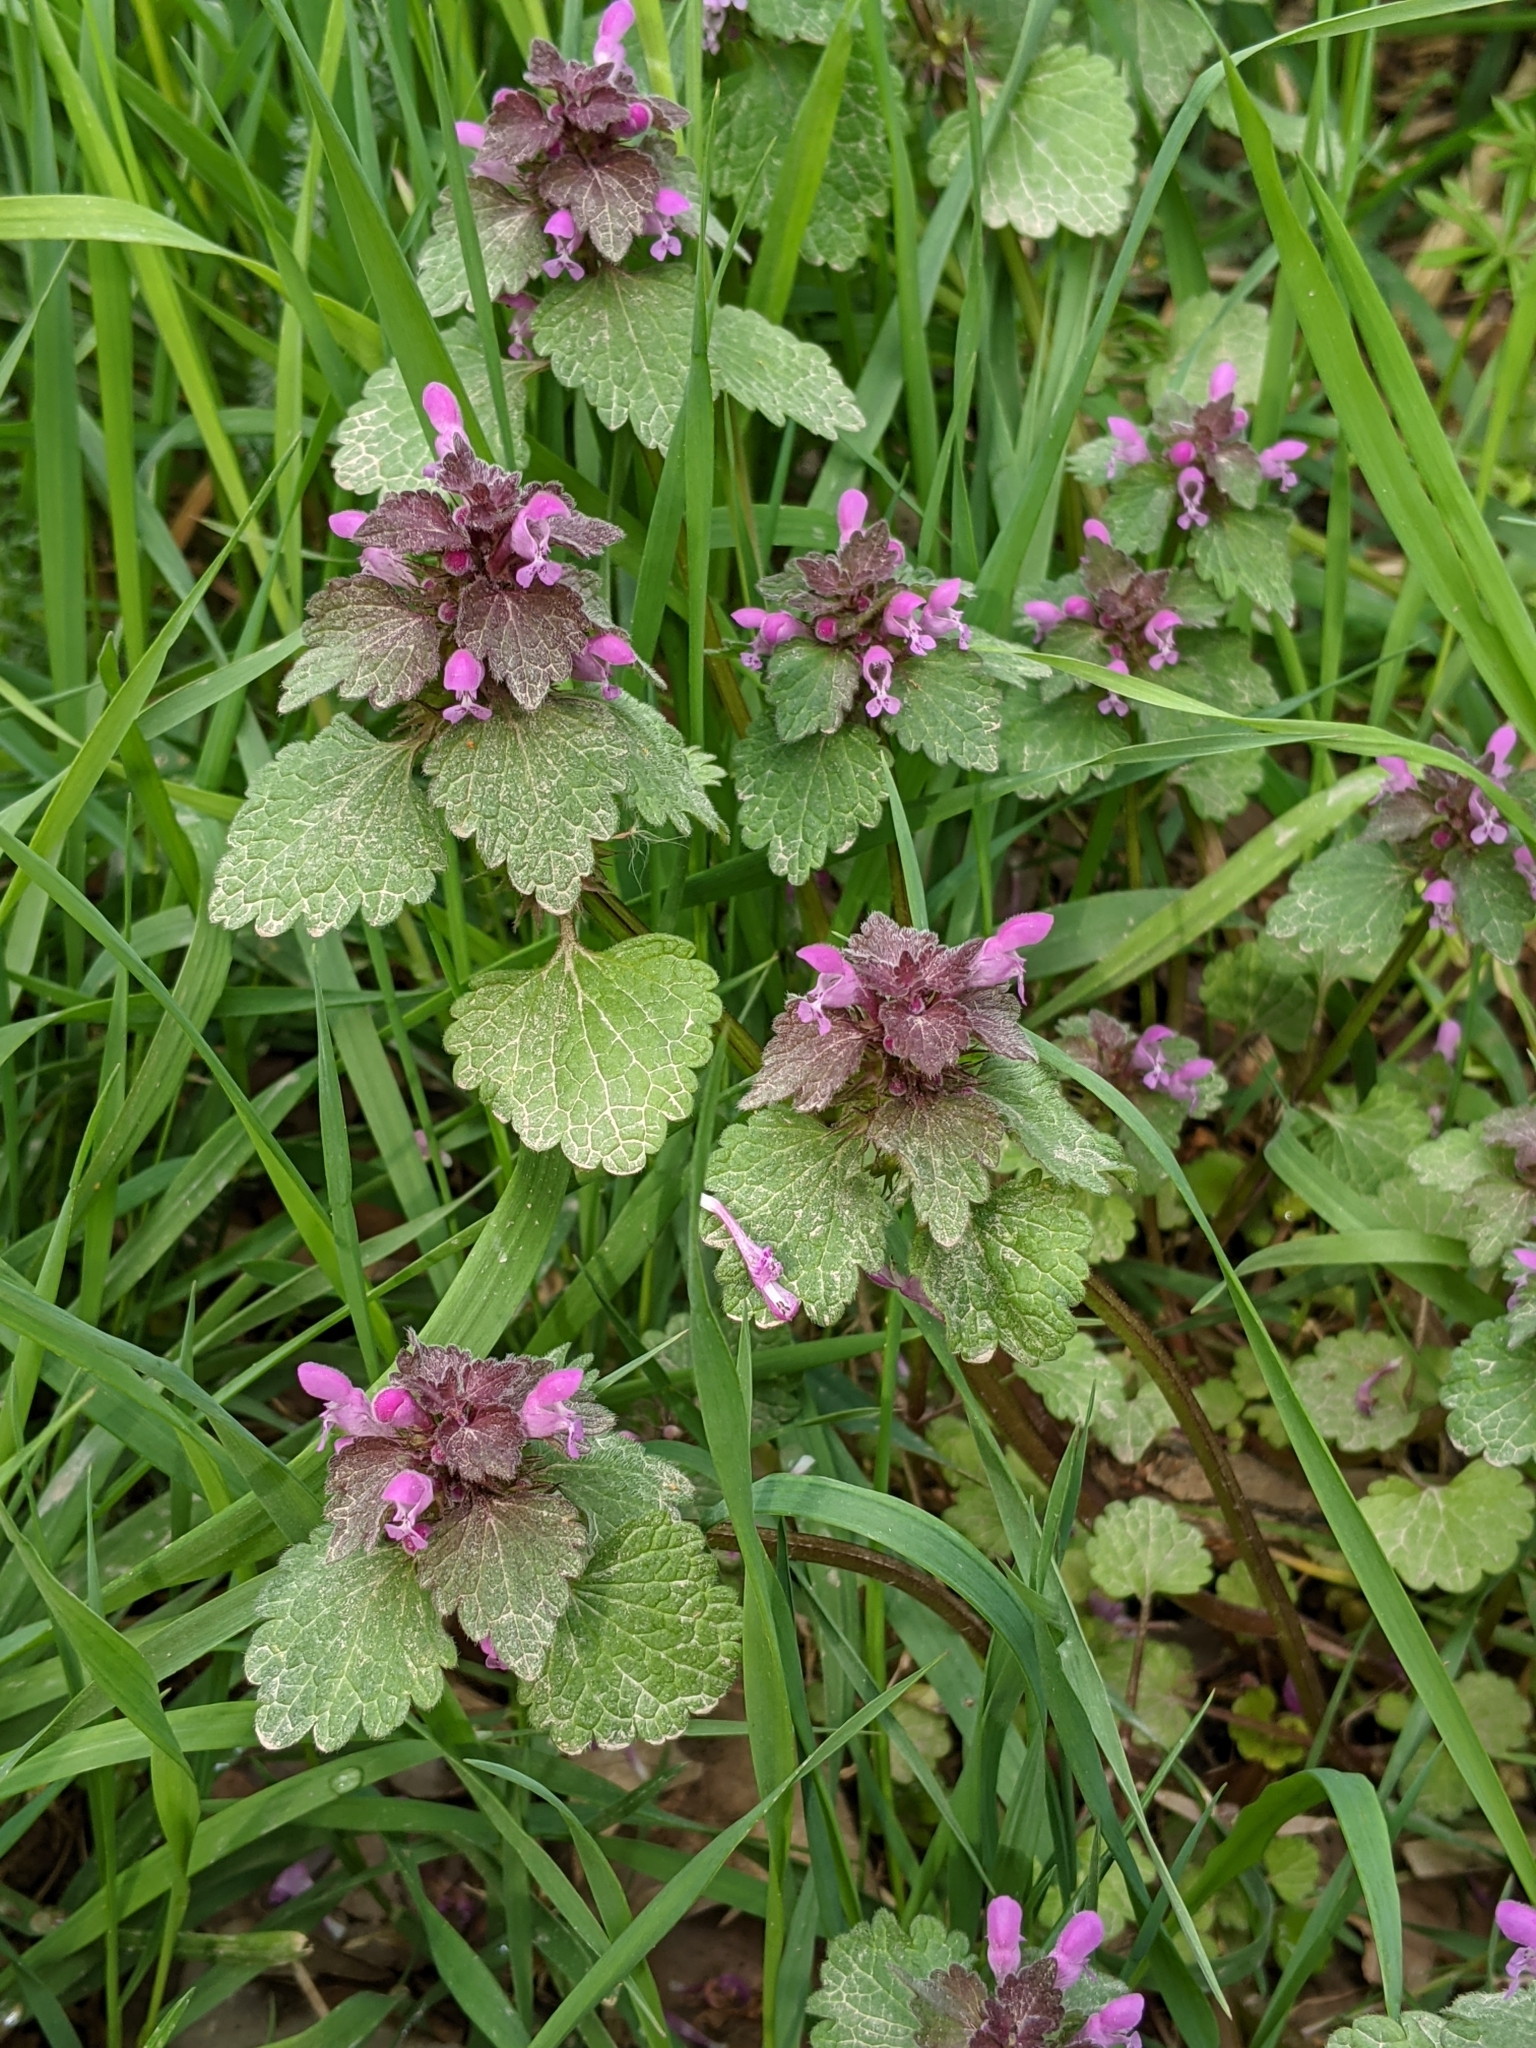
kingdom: Plantae
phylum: Tracheophyta
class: Magnoliopsida
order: Lamiales
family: Lamiaceae
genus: Lamium
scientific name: Lamium purpureum
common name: Red dead-nettle
